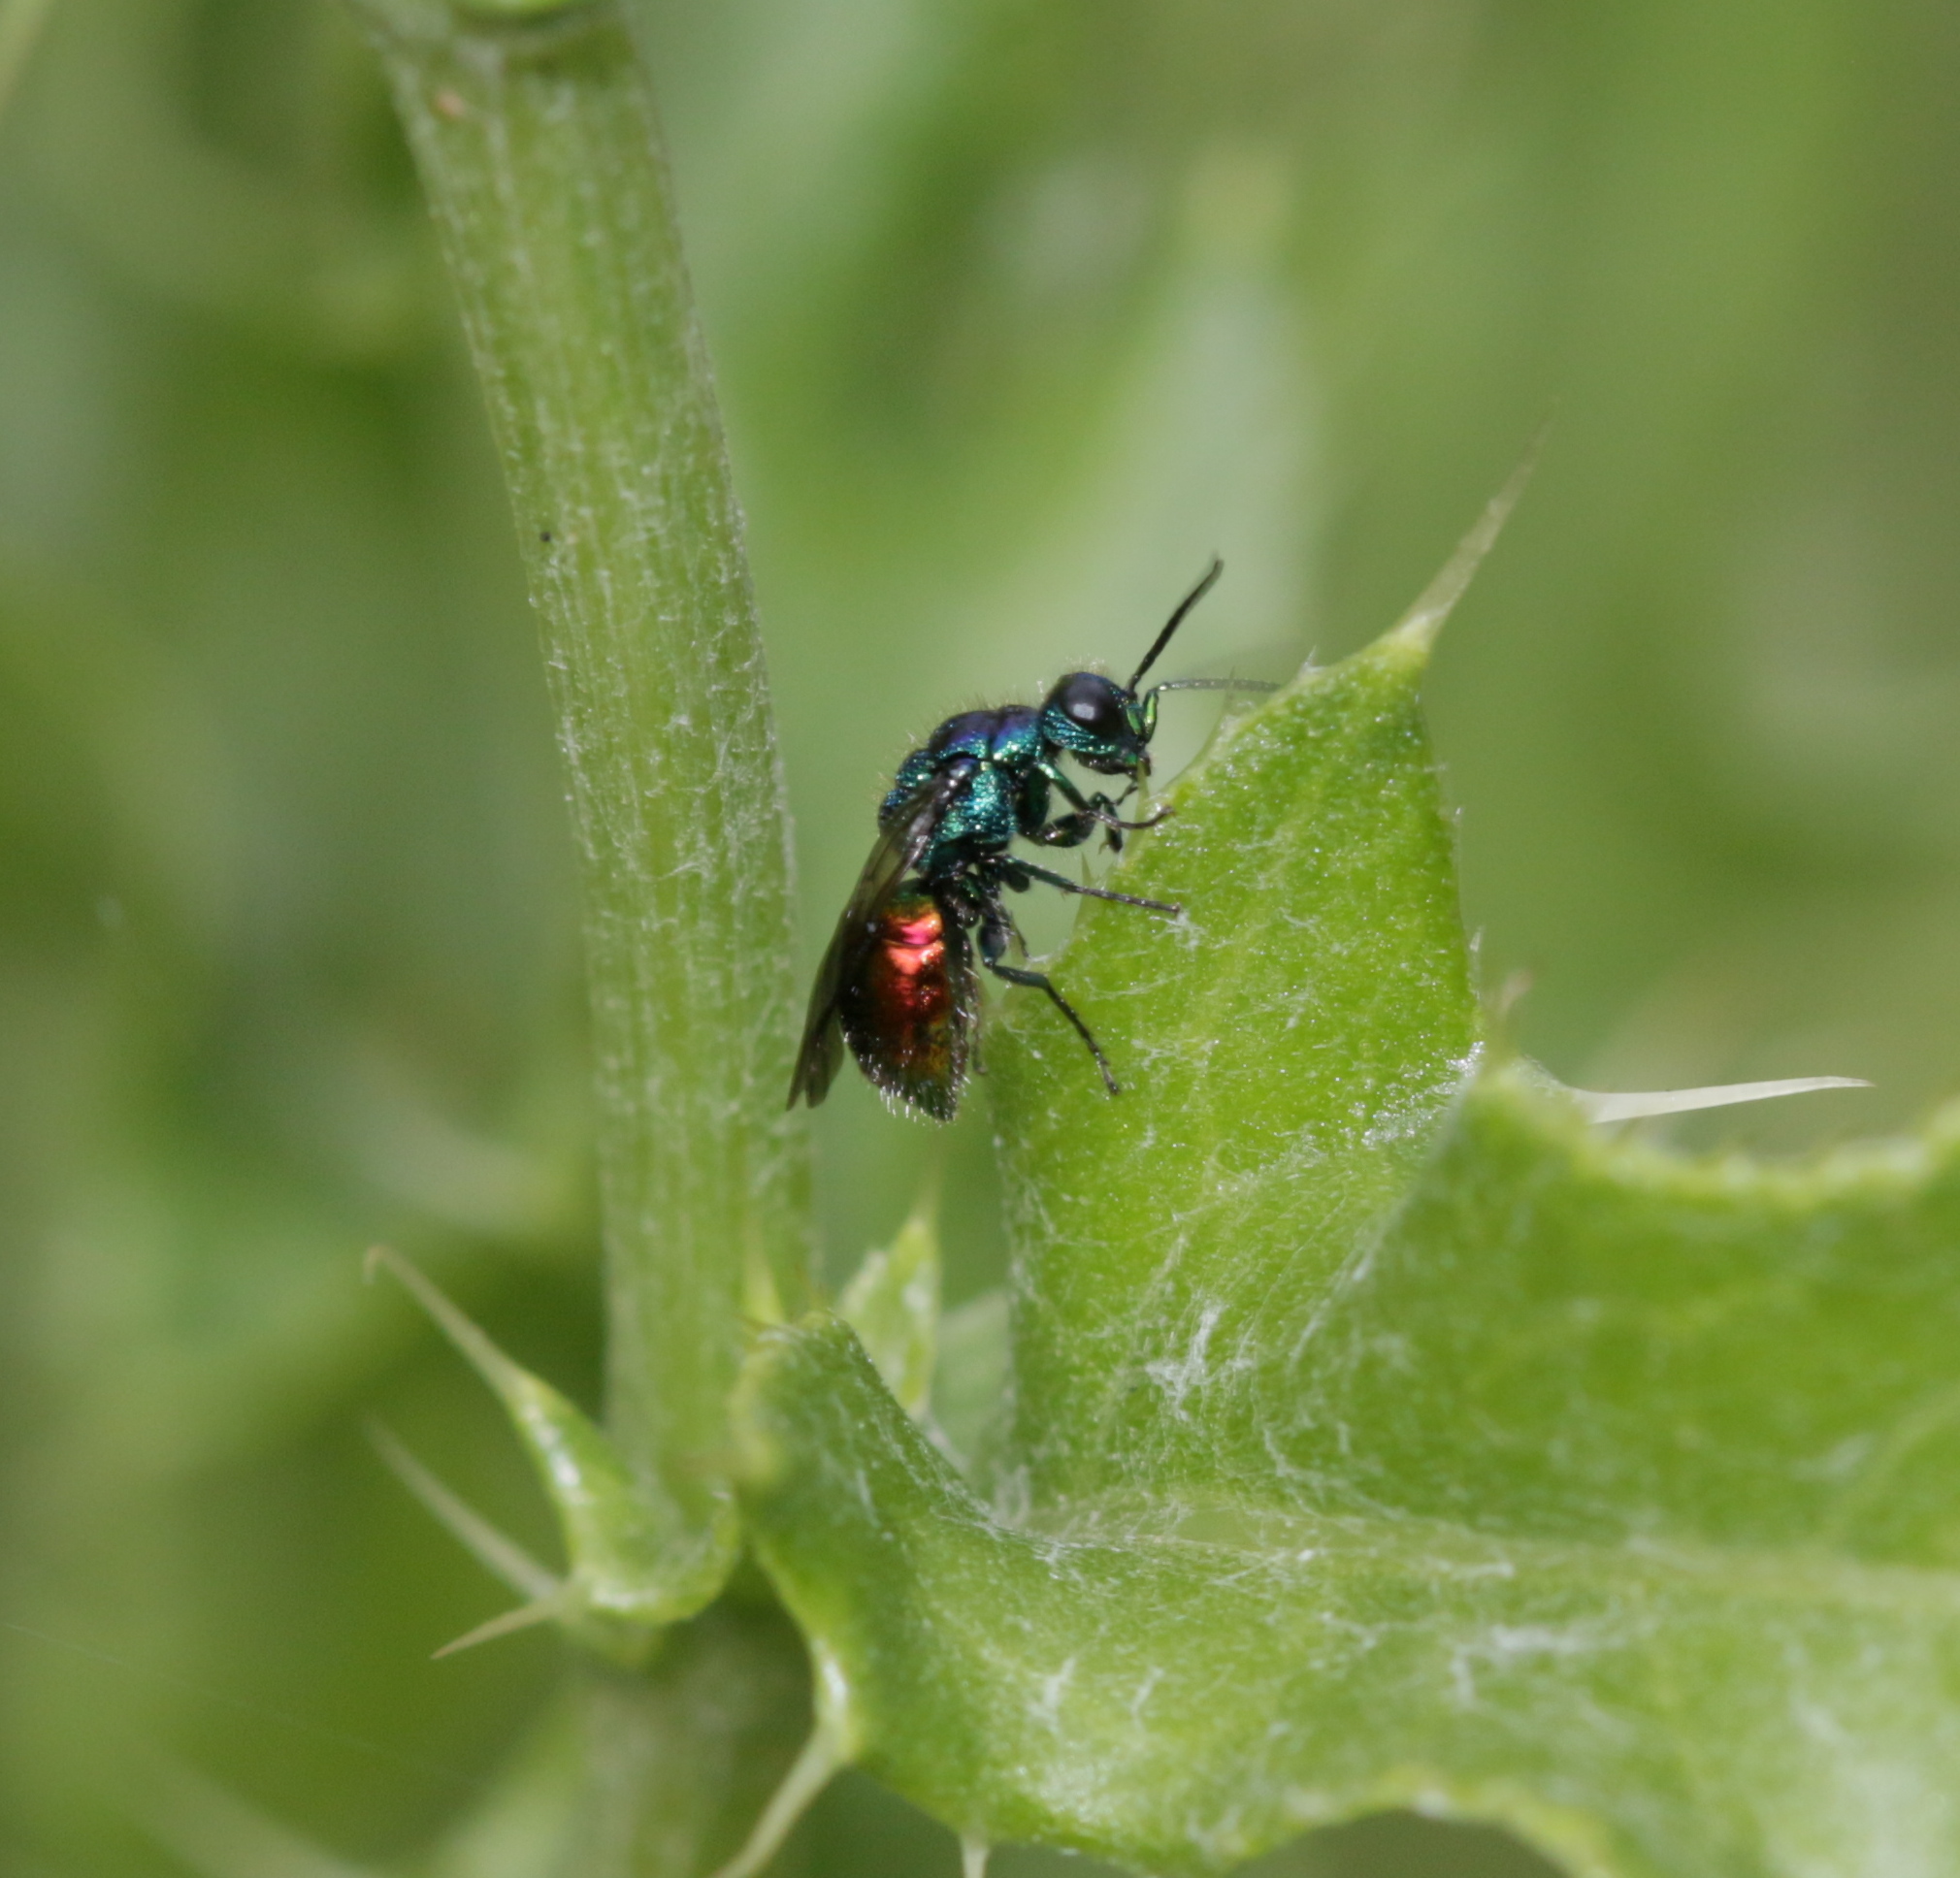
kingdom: Animalia
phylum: Arthropoda
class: Insecta
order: Hymenoptera
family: Chrysididae
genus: Pseudomalus
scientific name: Pseudomalus auratus
